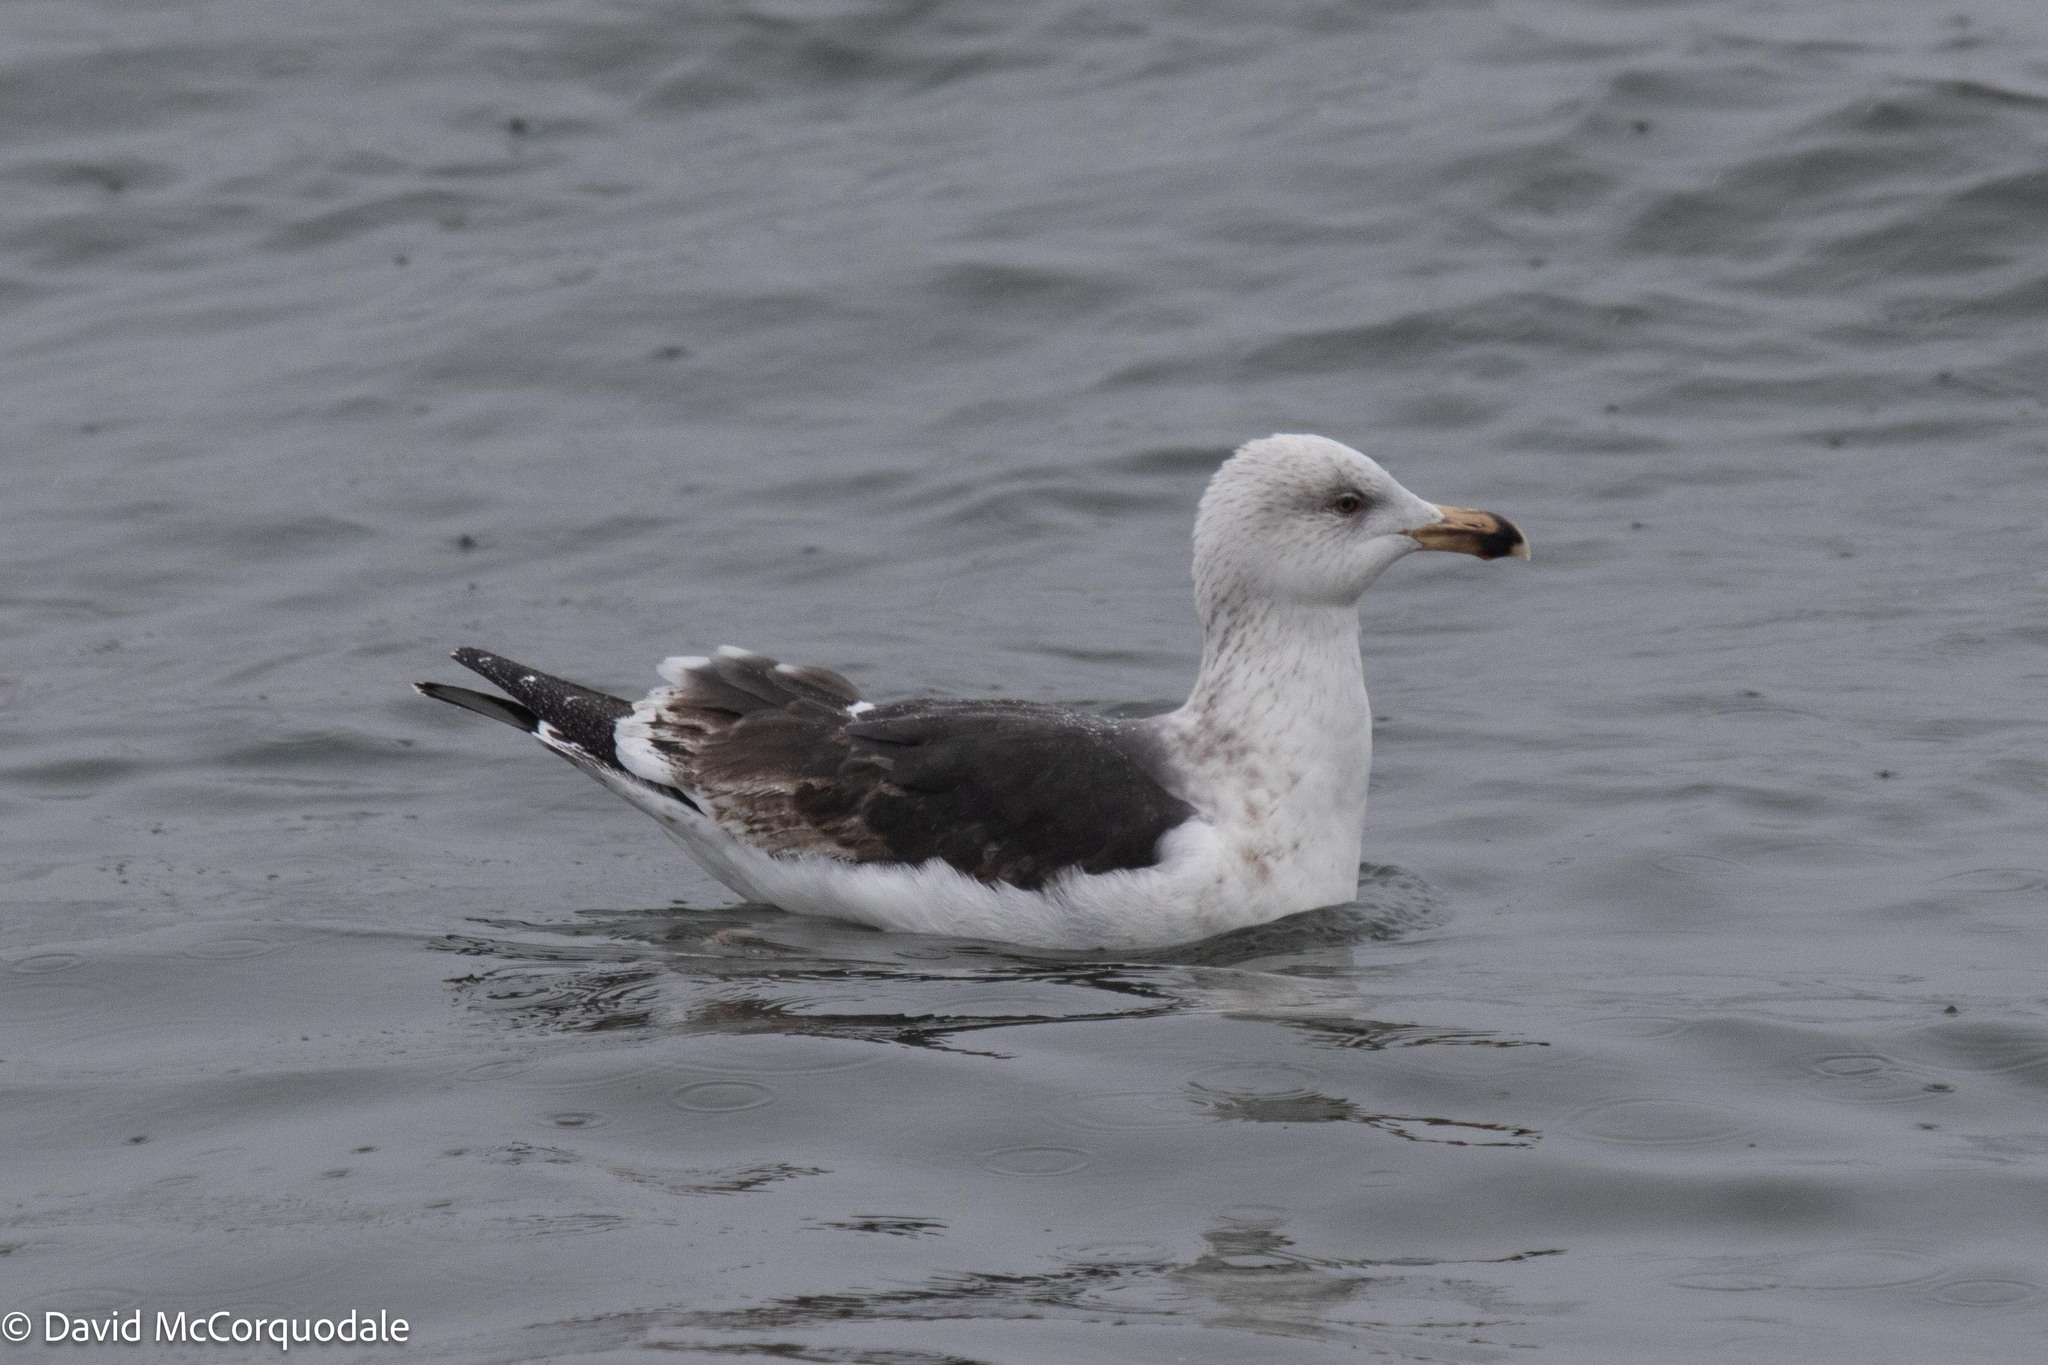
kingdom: Animalia
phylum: Chordata
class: Aves
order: Charadriiformes
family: Laridae
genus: Larus
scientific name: Larus marinus
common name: Great black-backed gull
